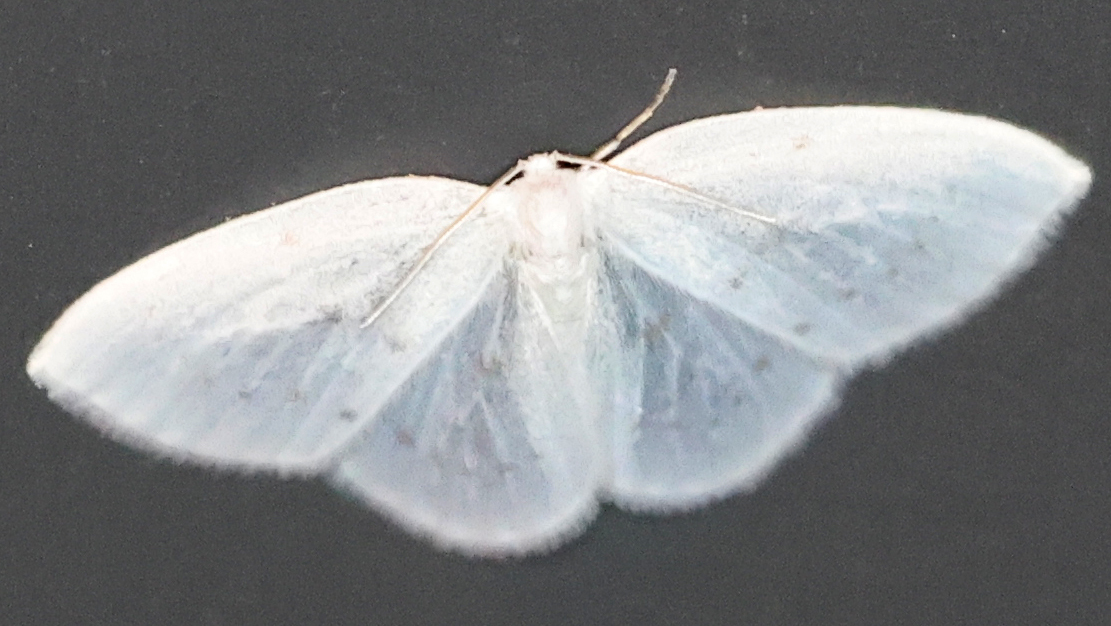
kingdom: Animalia
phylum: Arthropoda
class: Insecta
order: Lepidoptera
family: Drepanidae
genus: Eudeilinia
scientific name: Eudeilinia herminiata
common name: Northern eudeilinea moth
